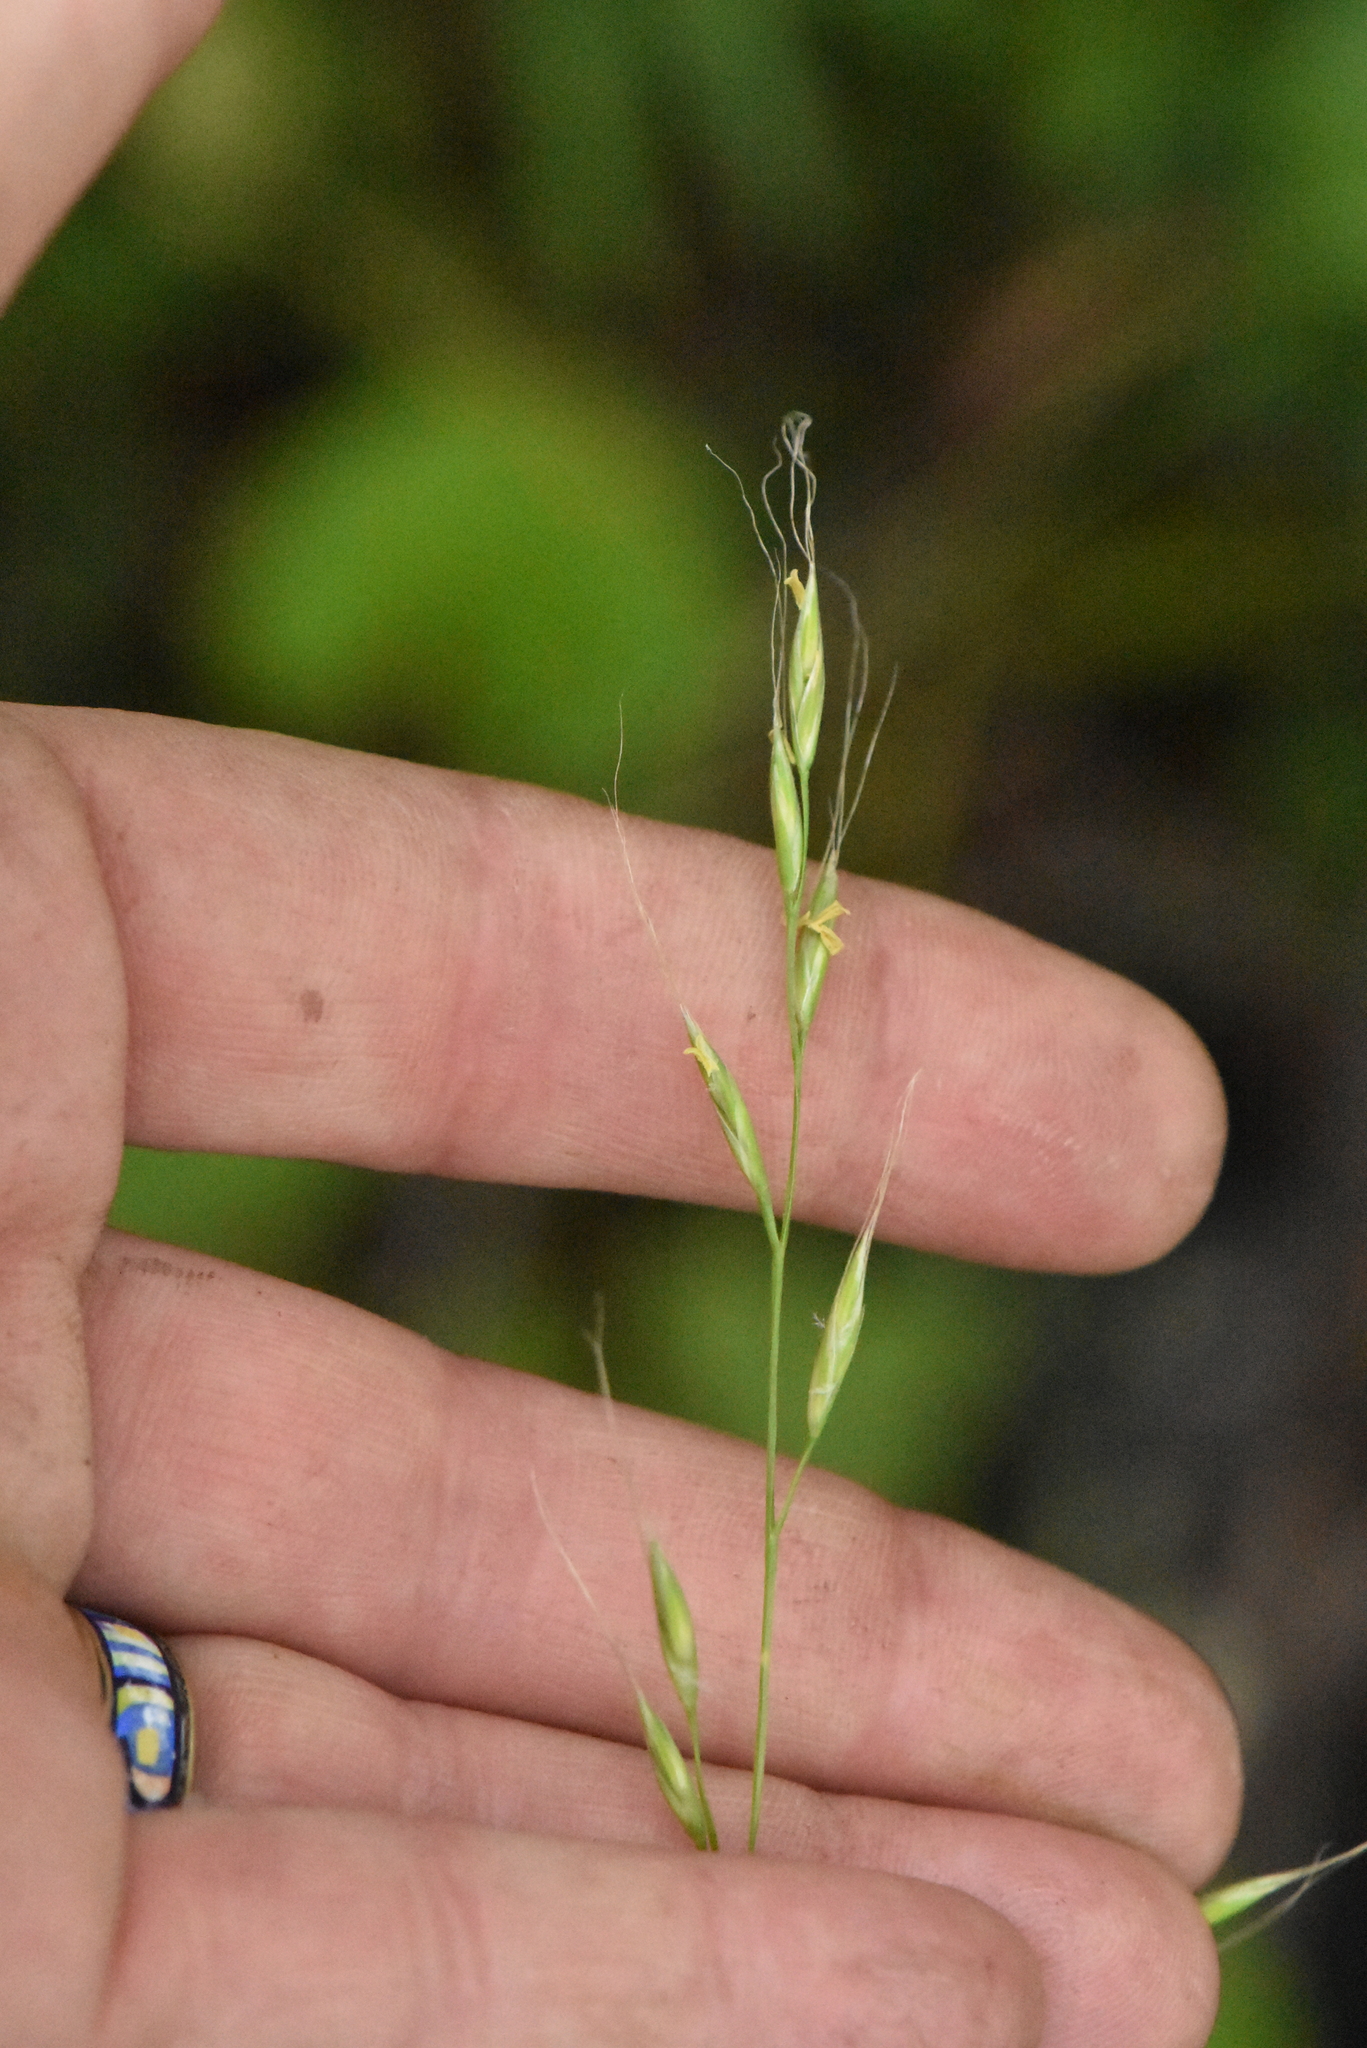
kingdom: Plantae
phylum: Tracheophyta
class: Liliopsida
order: Poales
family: Poaceae
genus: Lolium
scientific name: Lolium giganteum
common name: Giant fescue
